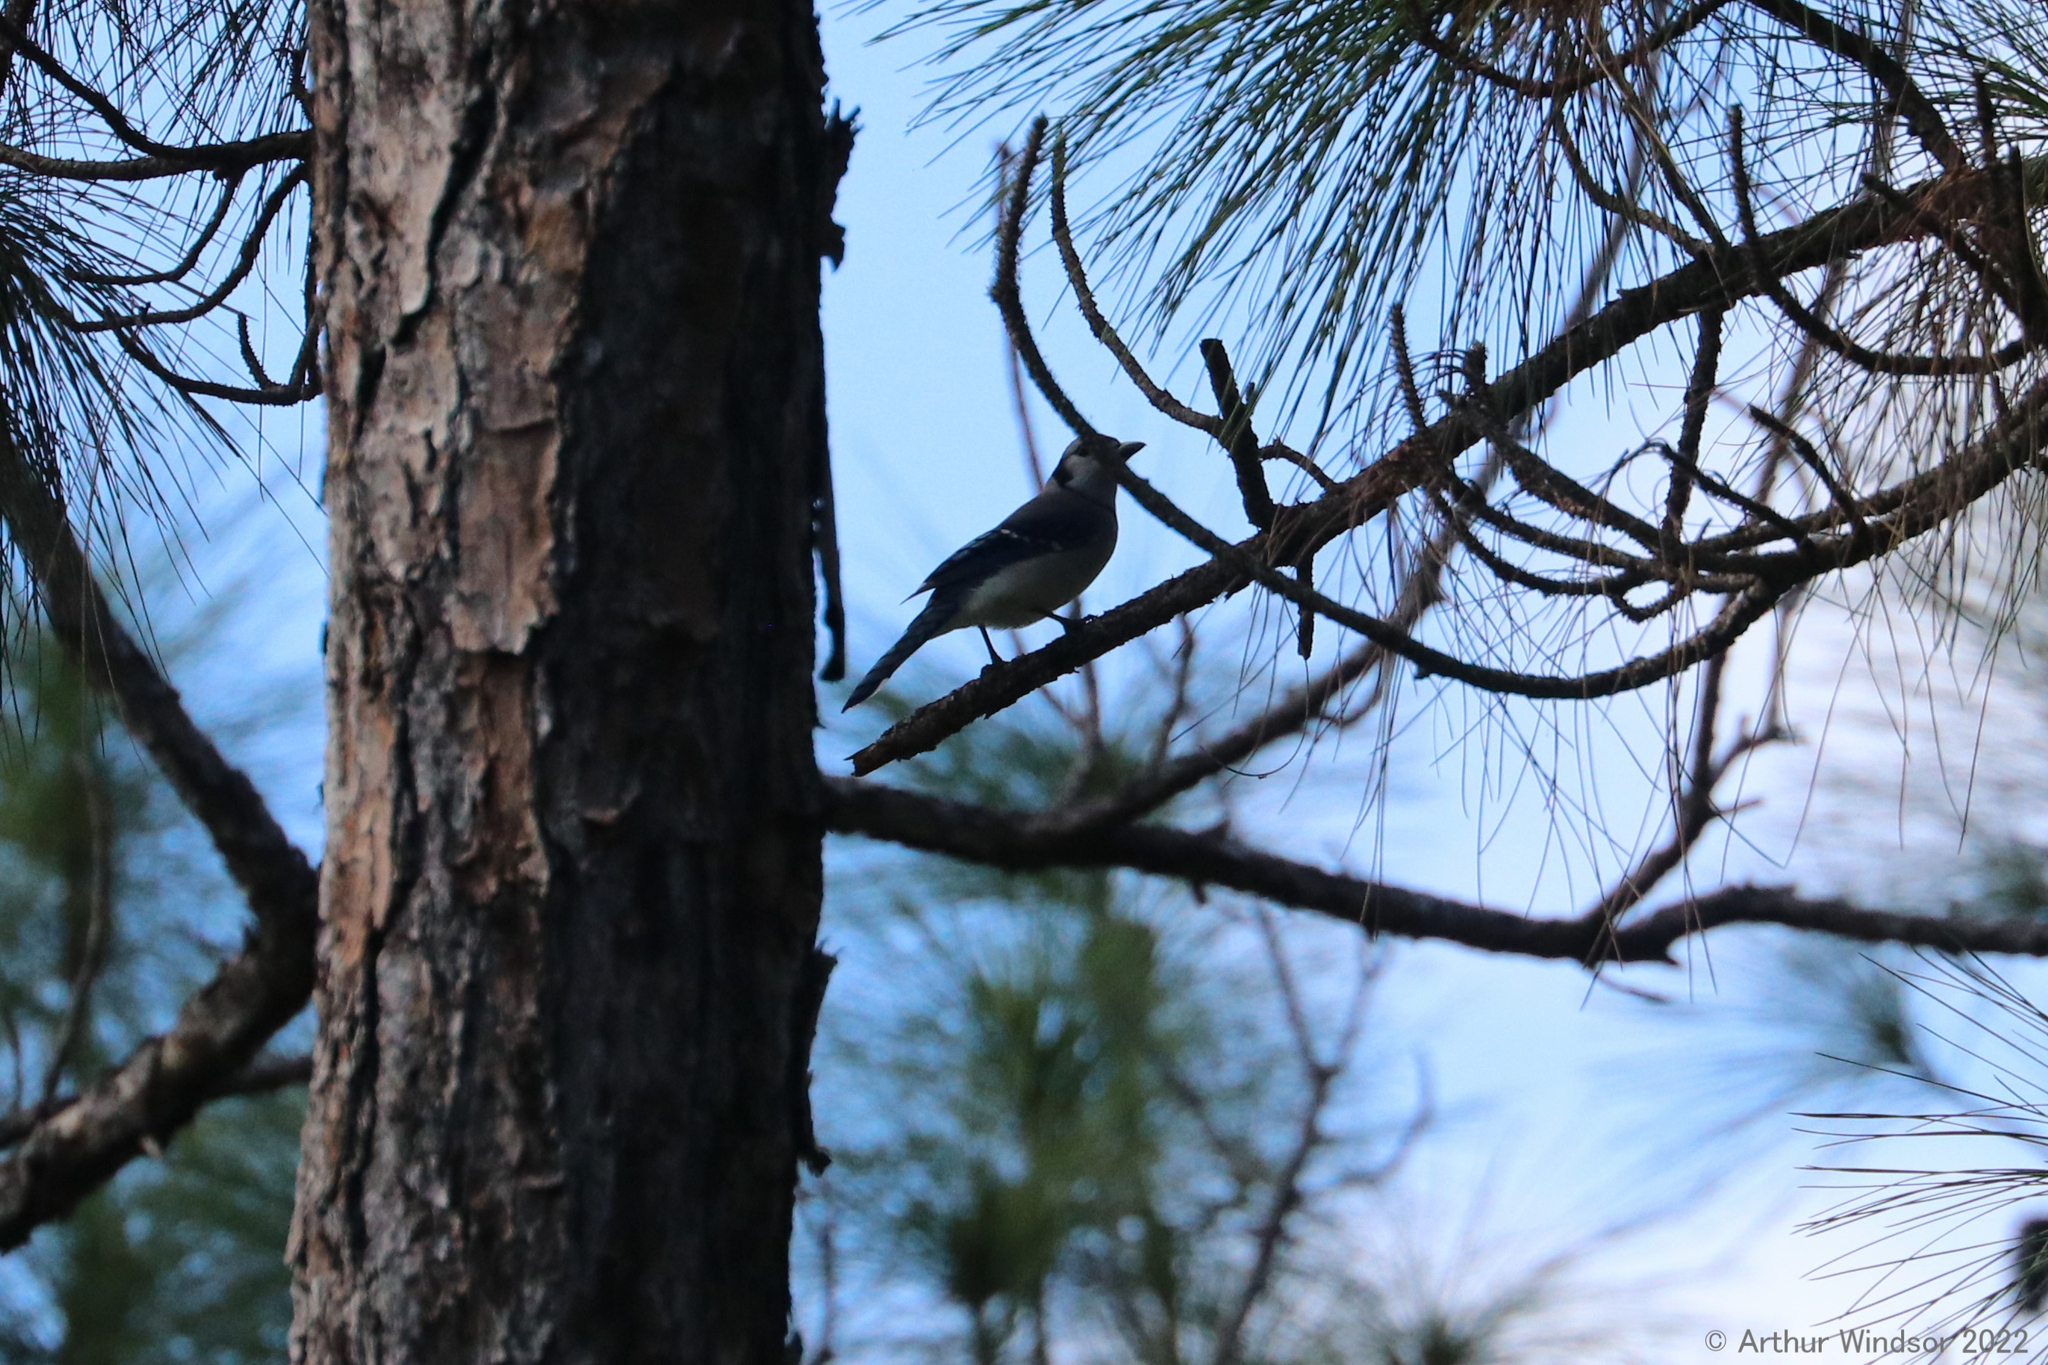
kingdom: Animalia
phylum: Chordata
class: Aves
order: Passeriformes
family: Corvidae
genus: Cyanocitta
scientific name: Cyanocitta cristata
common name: Blue jay
